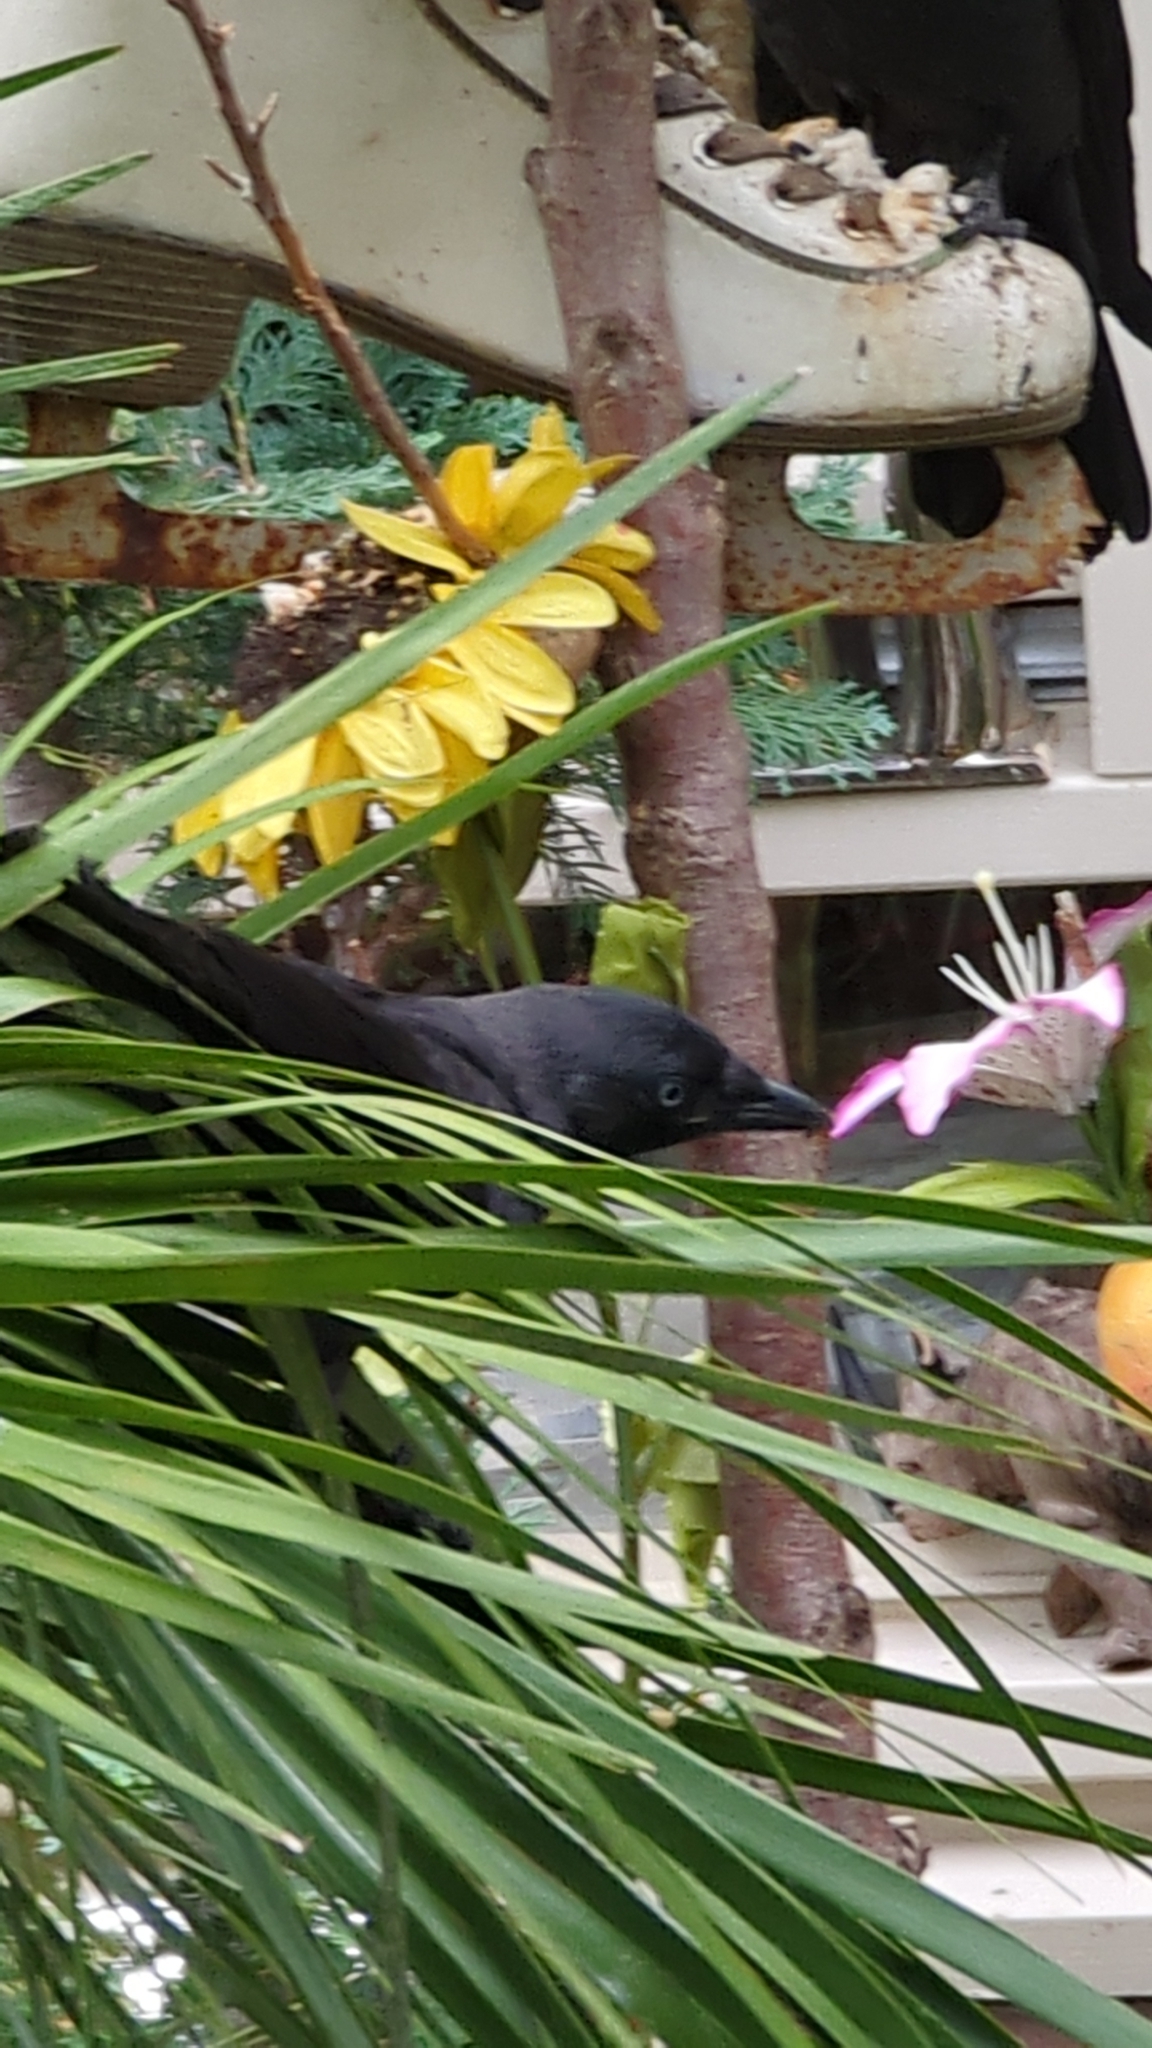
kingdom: Animalia
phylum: Chordata
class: Aves
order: Passeriformes
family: Corvidae
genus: Coloeus
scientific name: Coloeus monedula
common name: Western jackdaw
